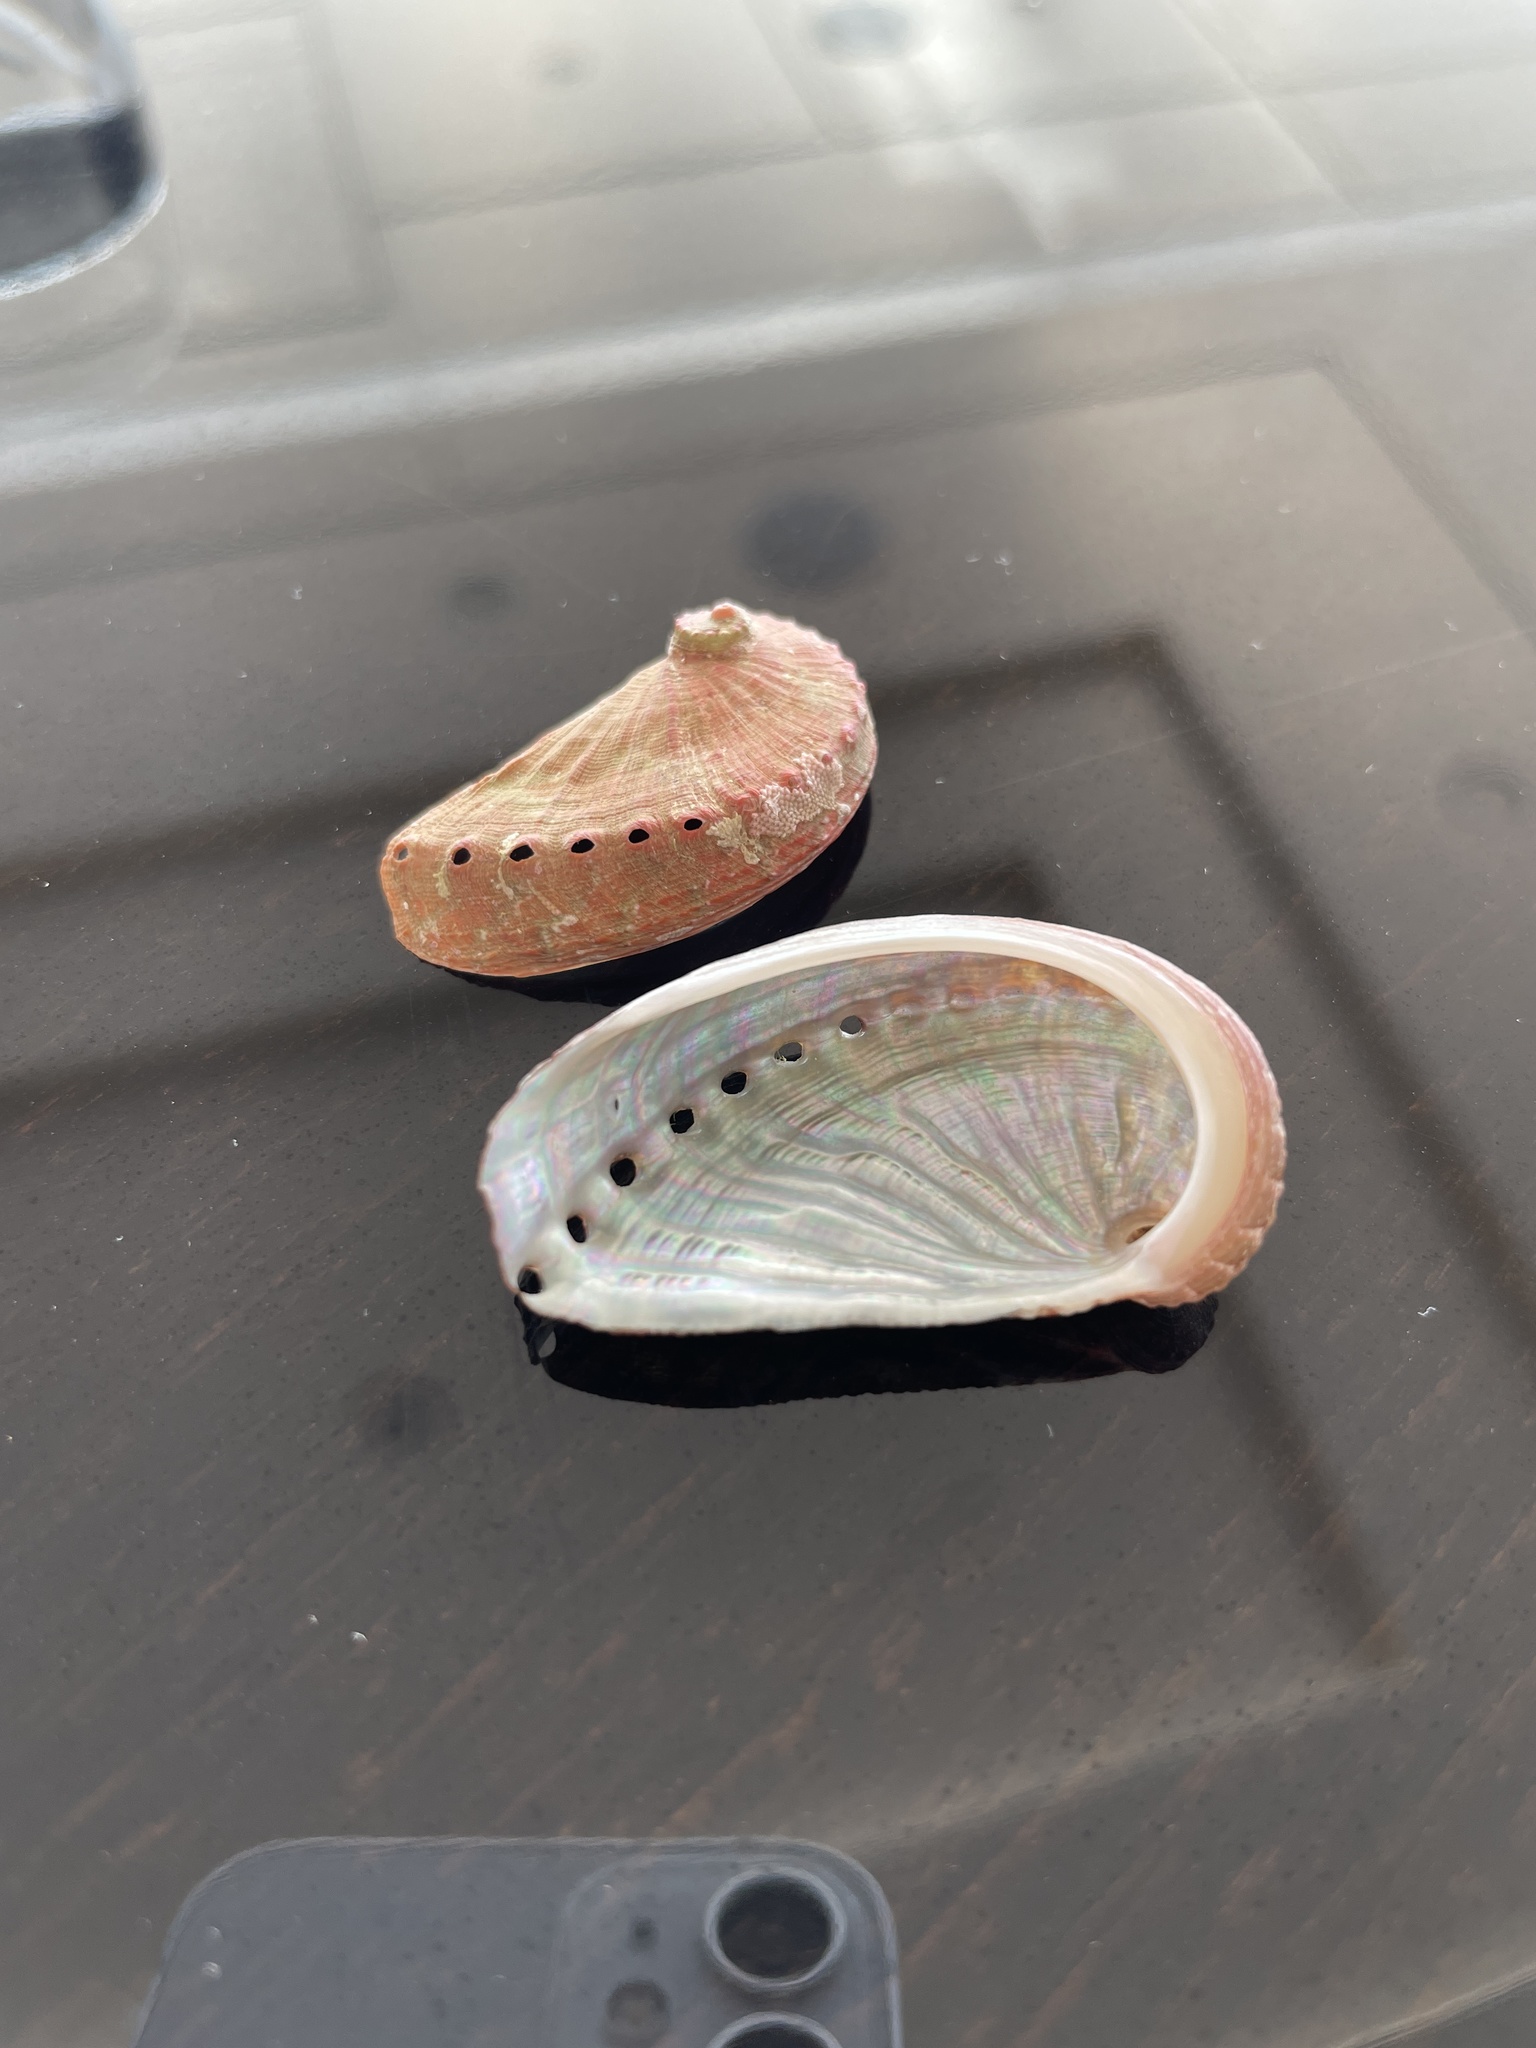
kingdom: Animalia
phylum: Mollusca
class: Gastropoda
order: Lepetellida
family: Haliotidae
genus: Haliotis
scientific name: Haliotis tuberculata
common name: Green ormer
